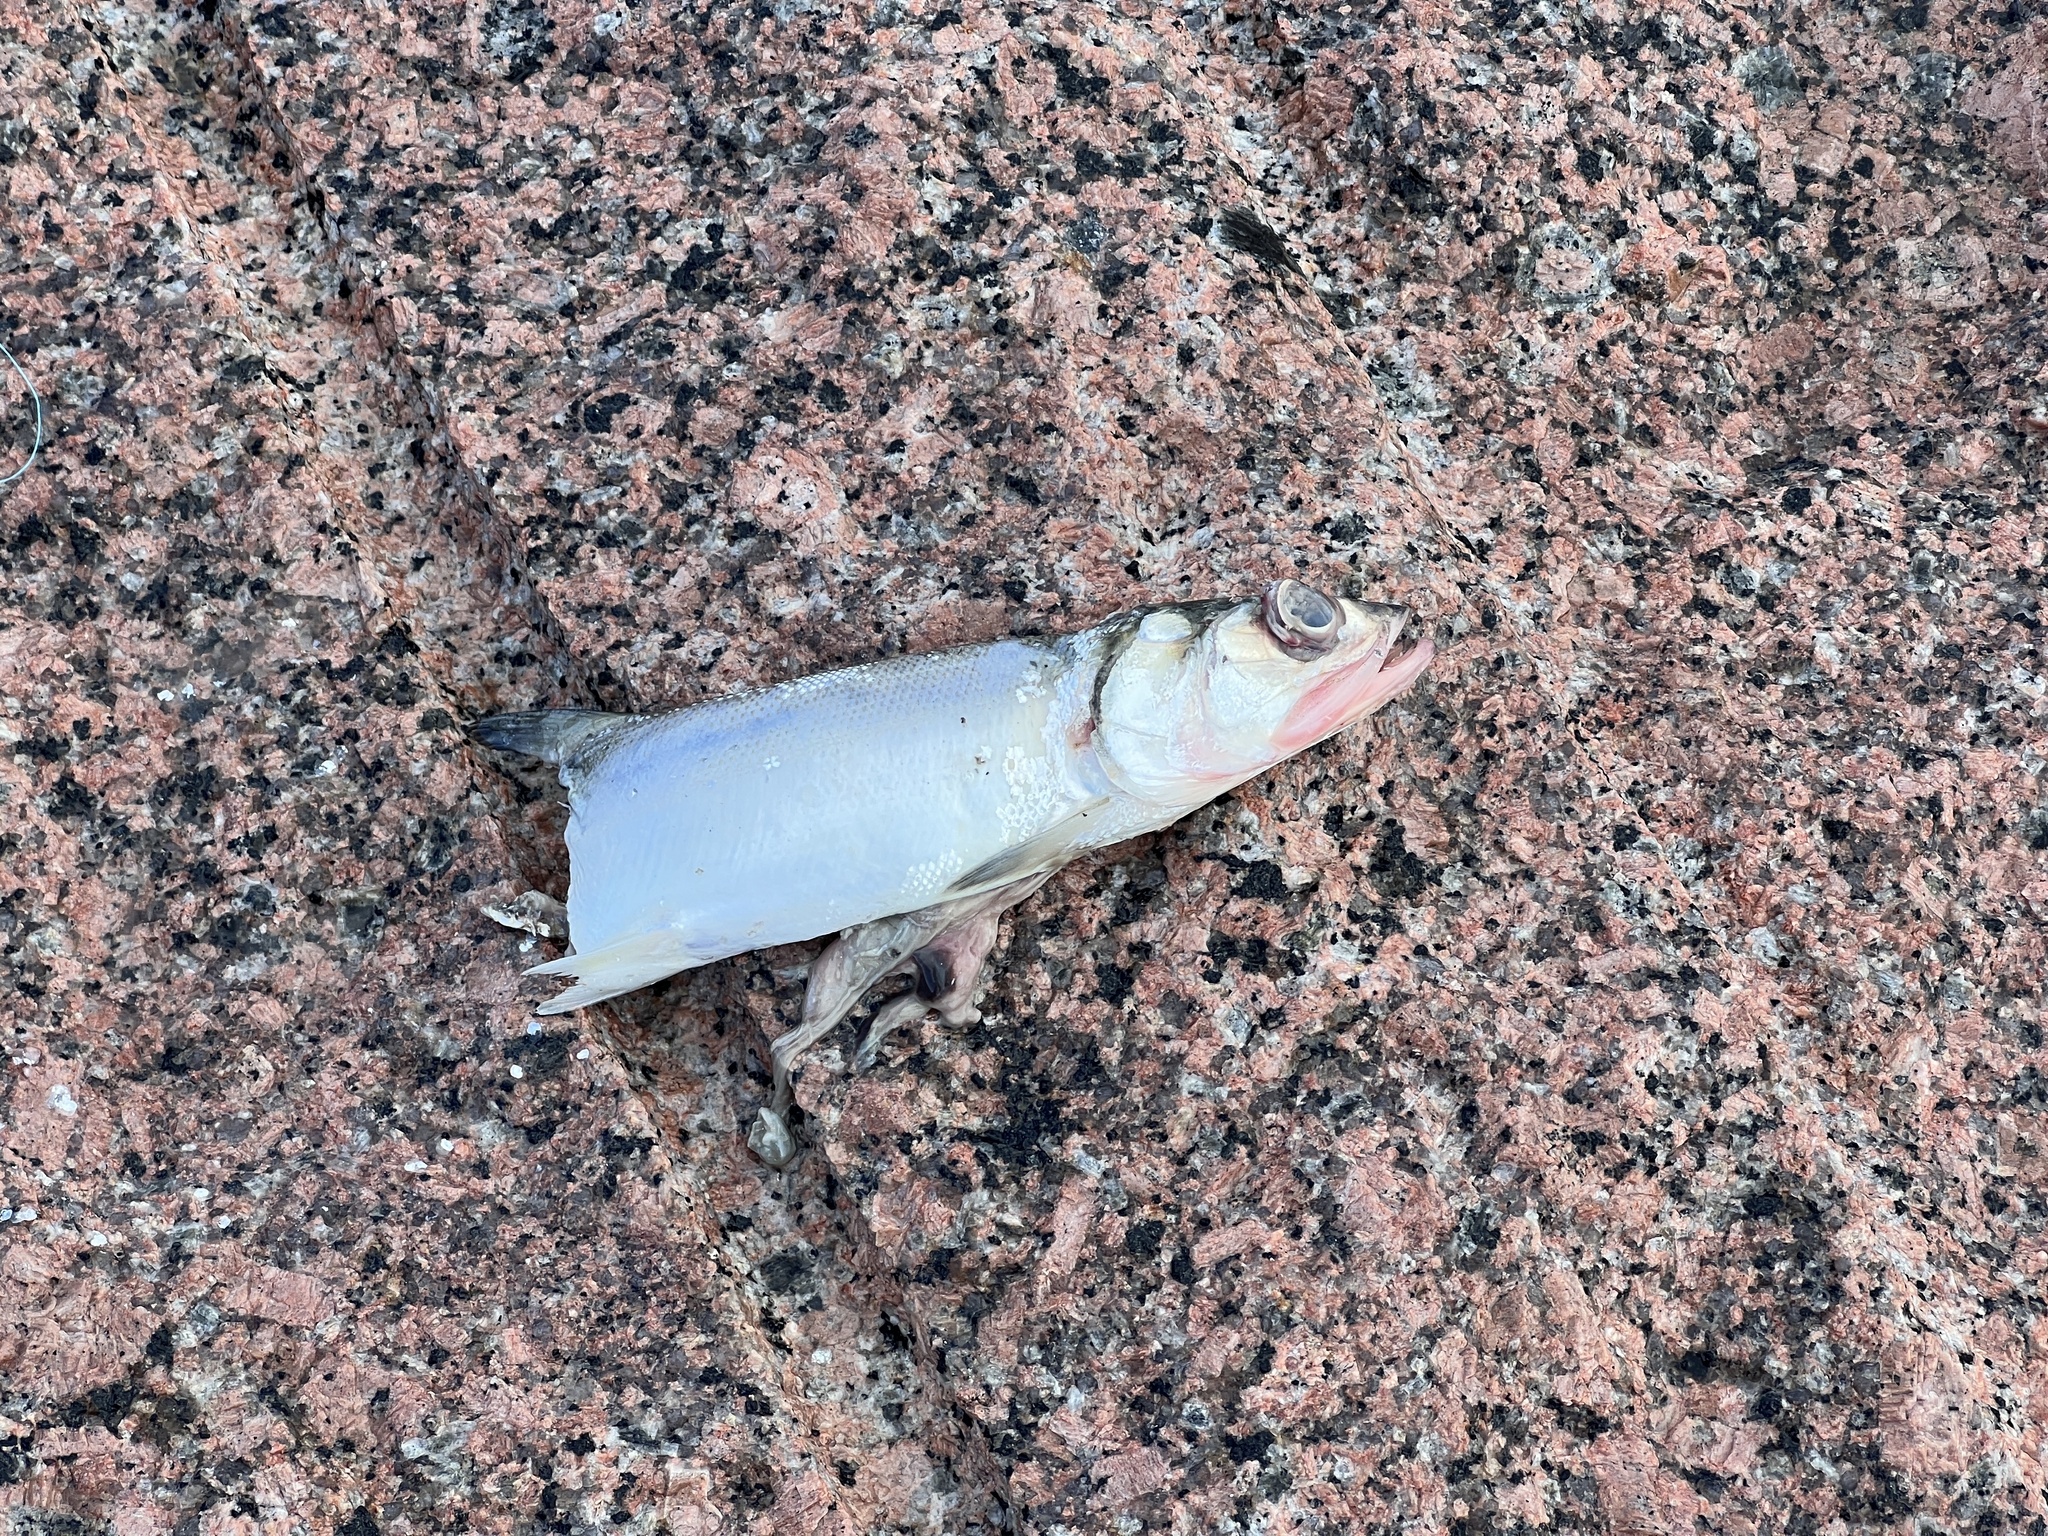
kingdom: Animalia
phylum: Chordata
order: Elopiformes
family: Elopidae
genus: Elops
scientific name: Elops saurus
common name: Ladyfish
